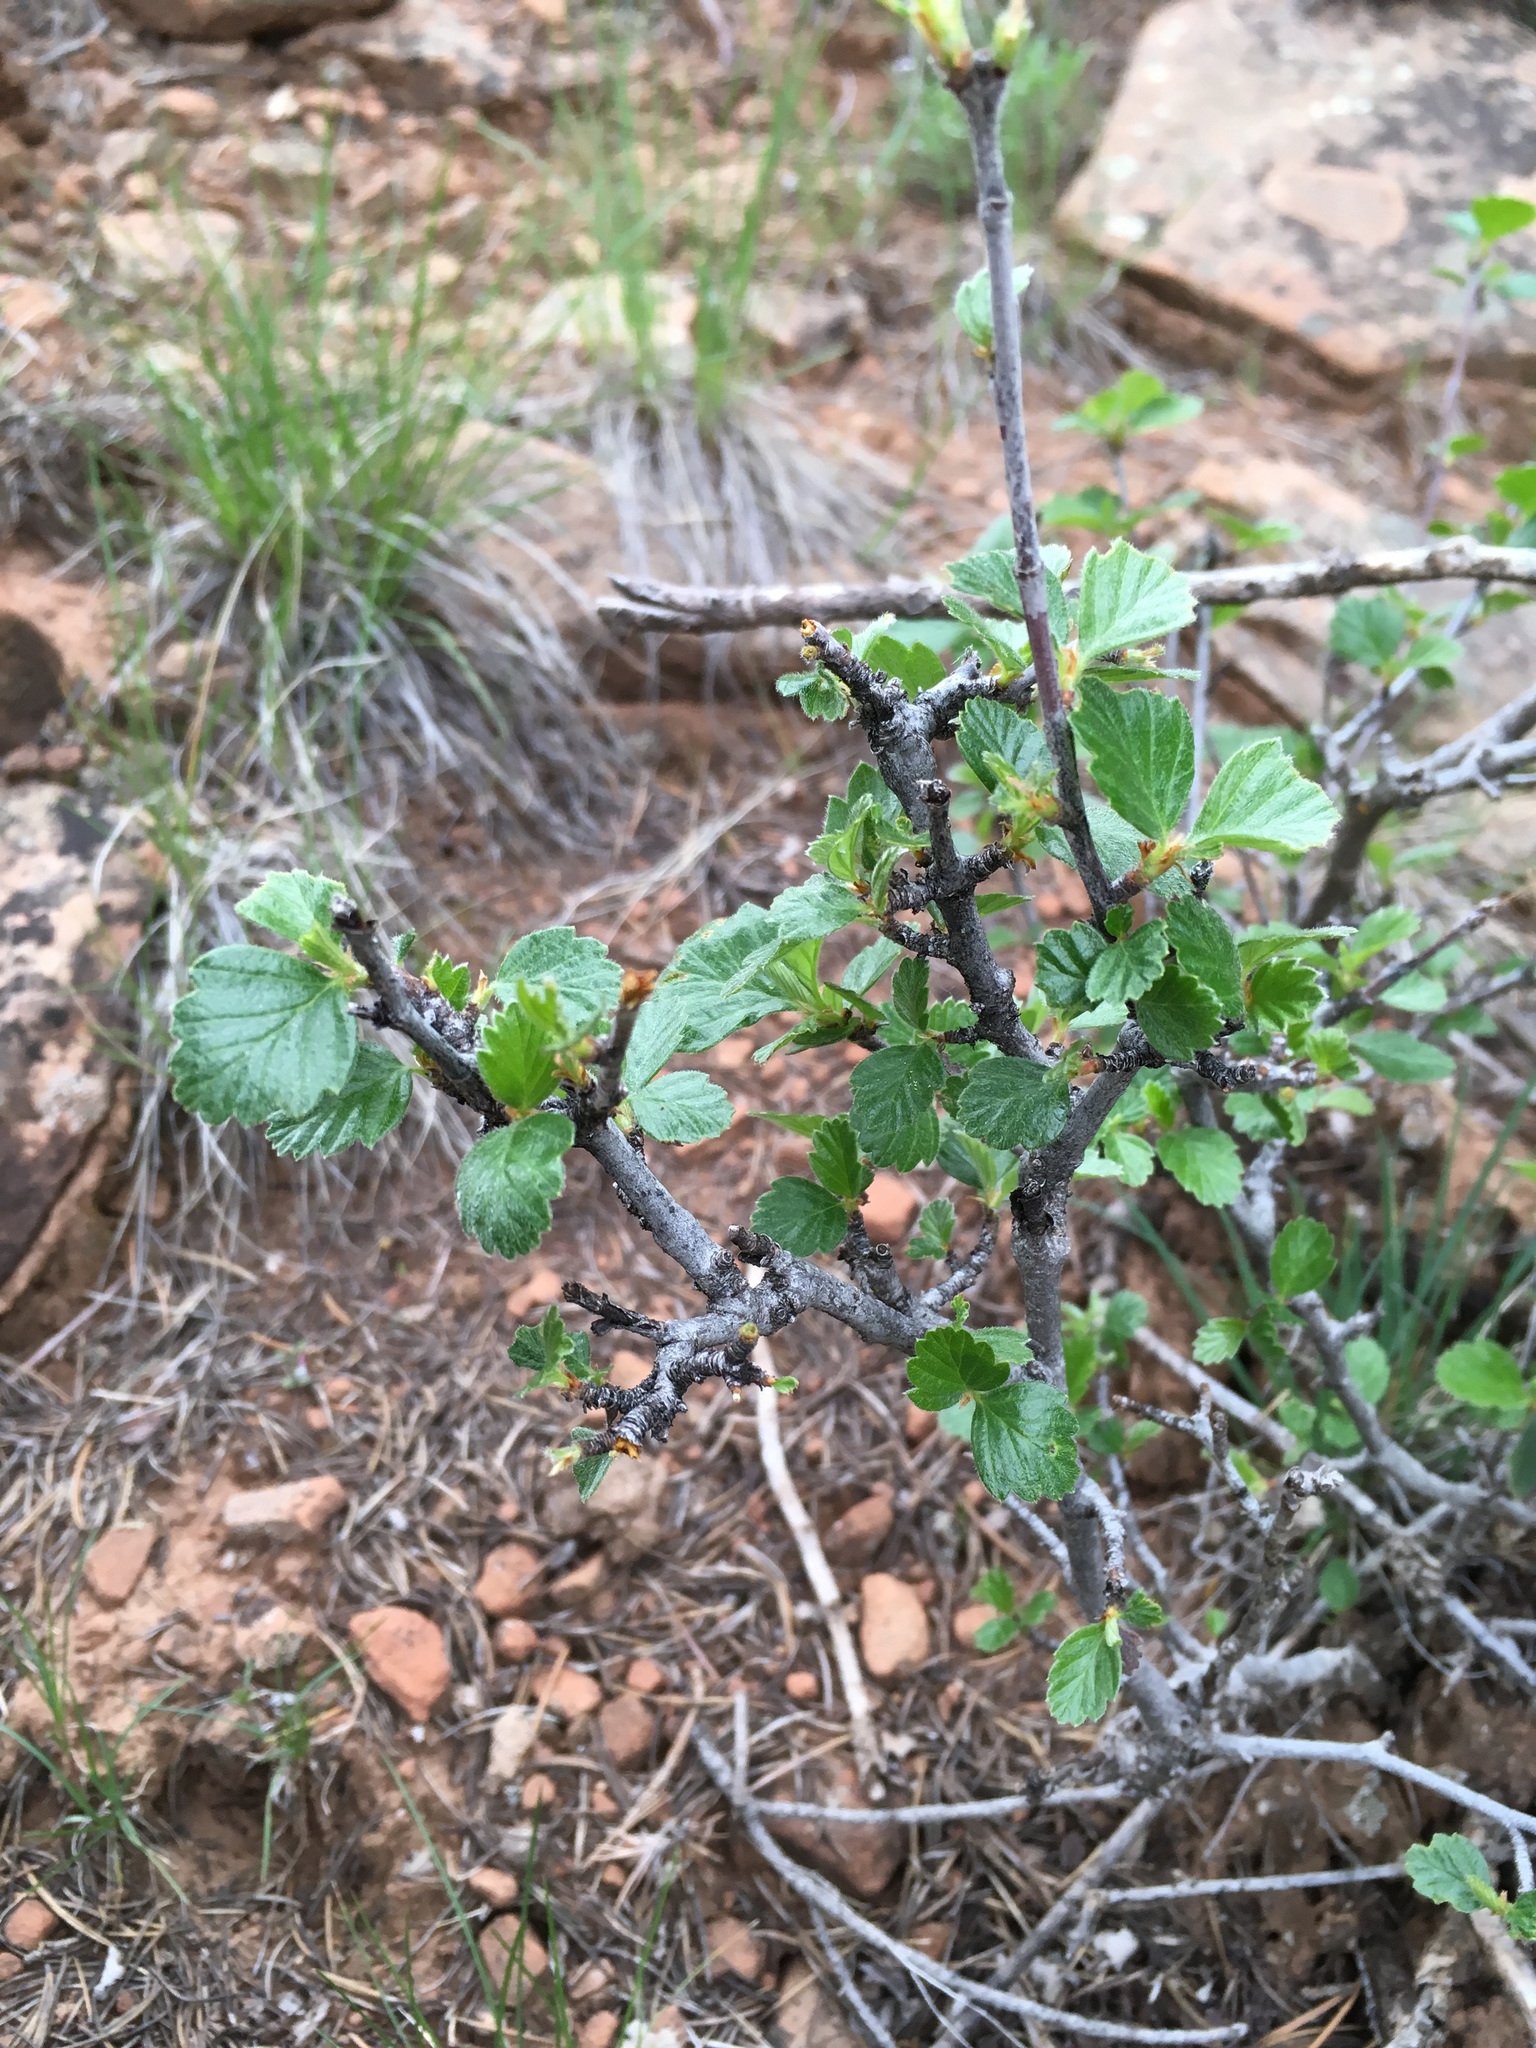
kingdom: Plantae
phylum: Tracheophyta
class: Magnoliopsida
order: Rosales
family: Rosaceae
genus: Cercocarpus
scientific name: Cercocarpus montanus
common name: Alder-leaf cercocarpus
